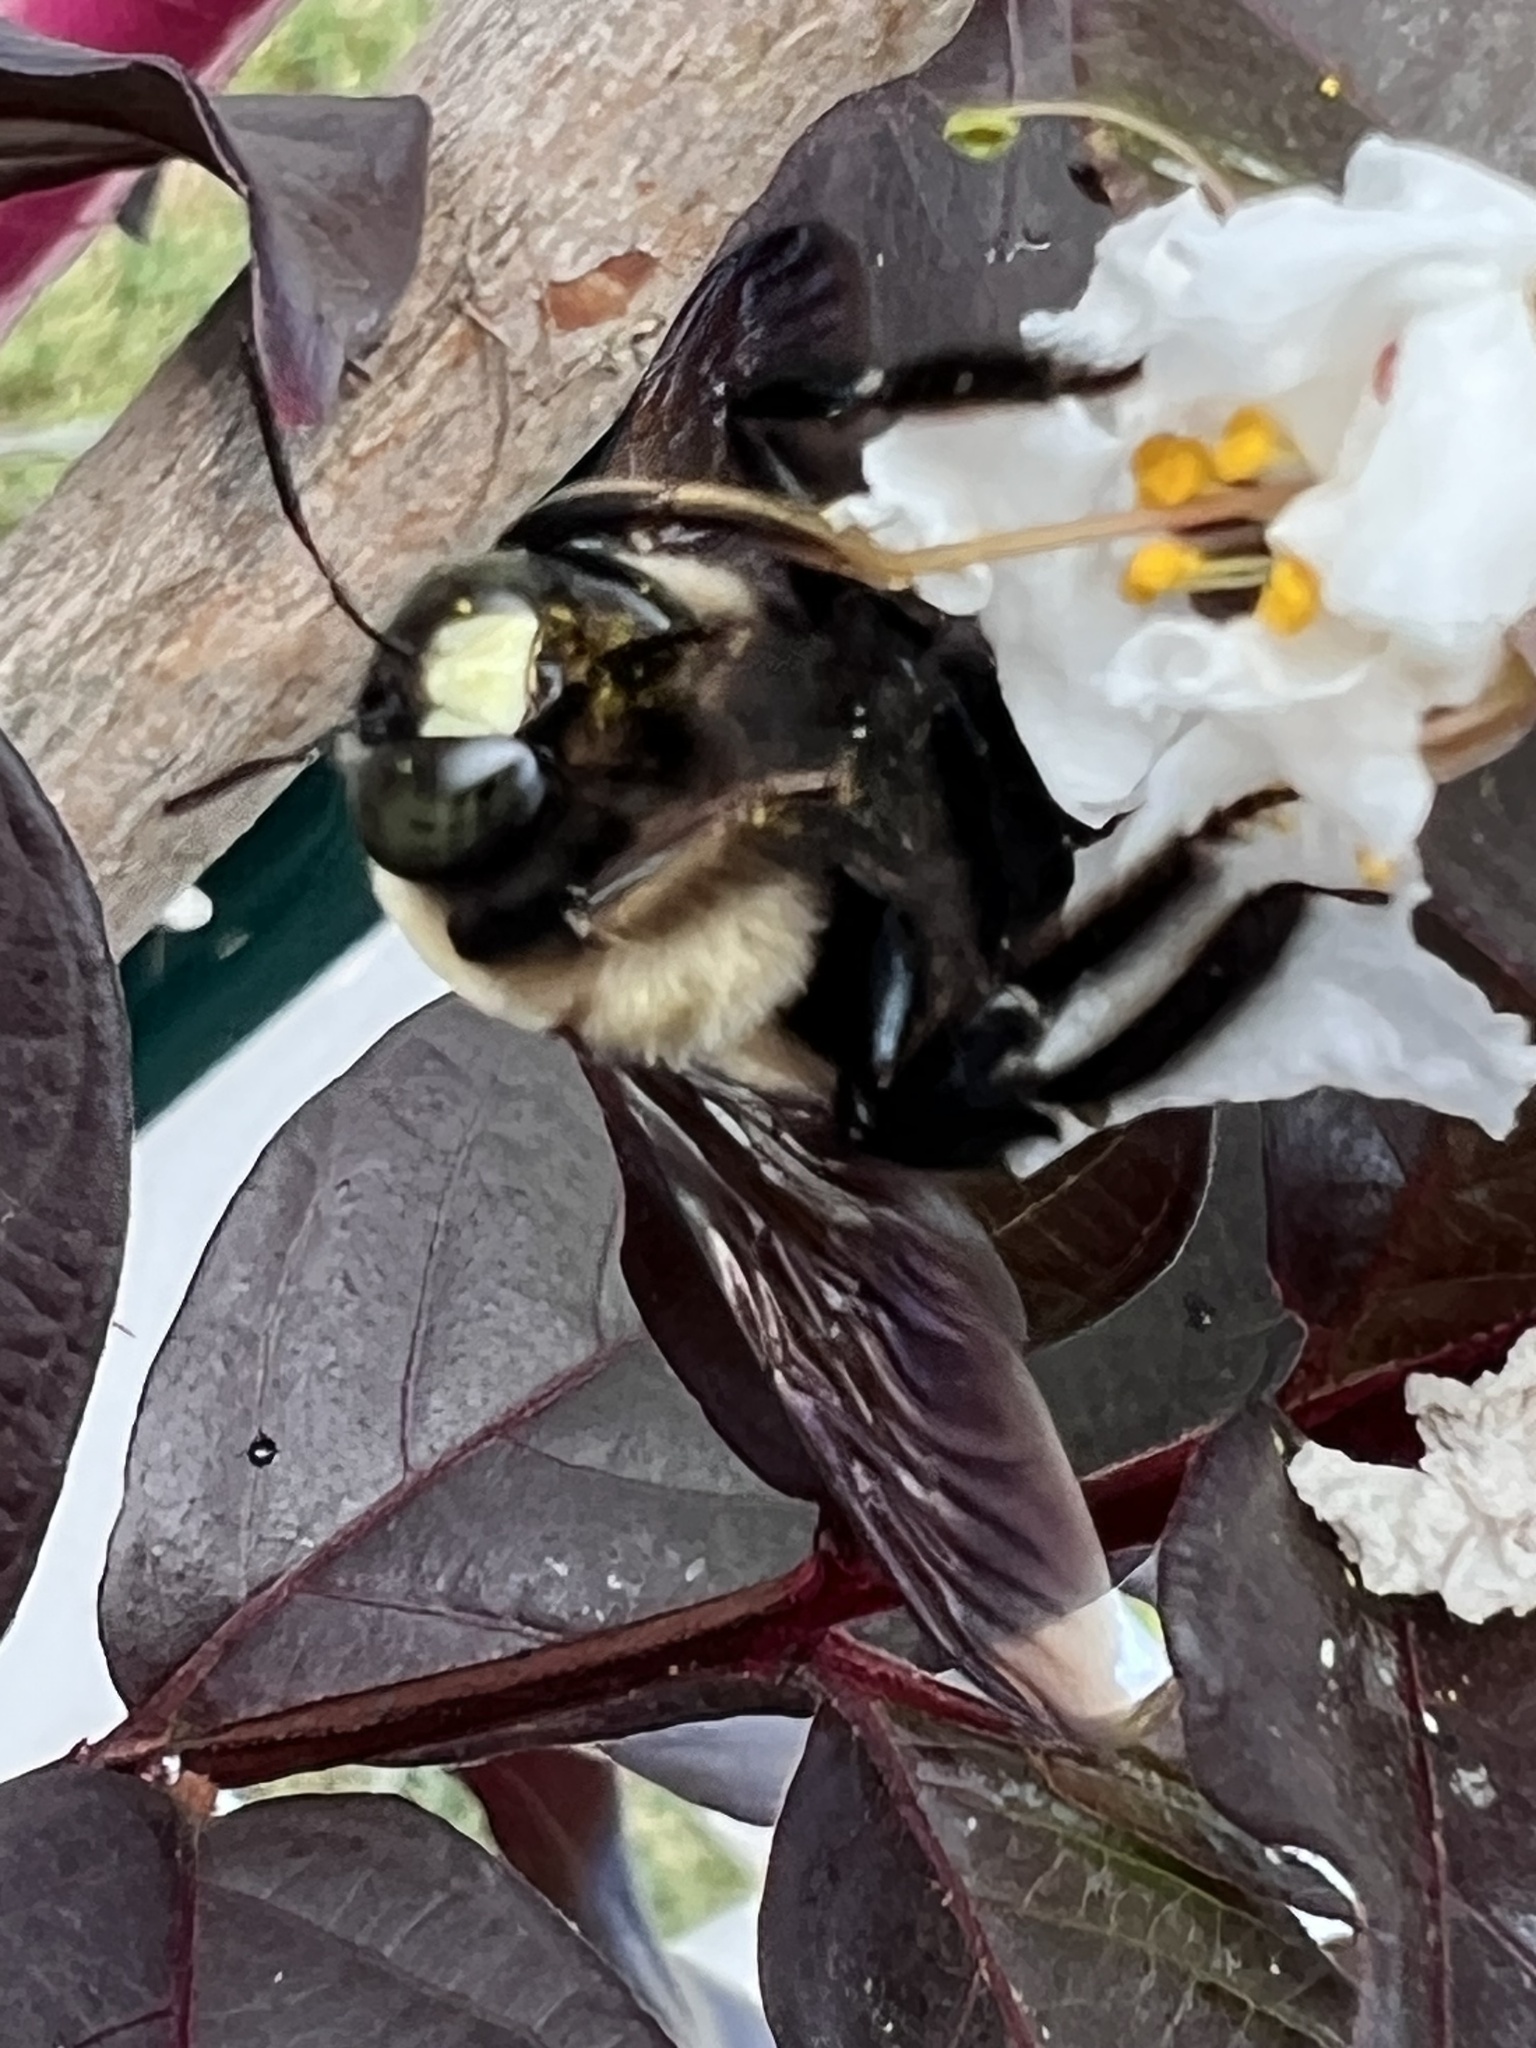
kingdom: Animalia
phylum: Arthropoda
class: Insecta
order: Hymenoptera
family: Apidae
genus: Xylocopa
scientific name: Xylocopa virginica
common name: Carpenter bee
